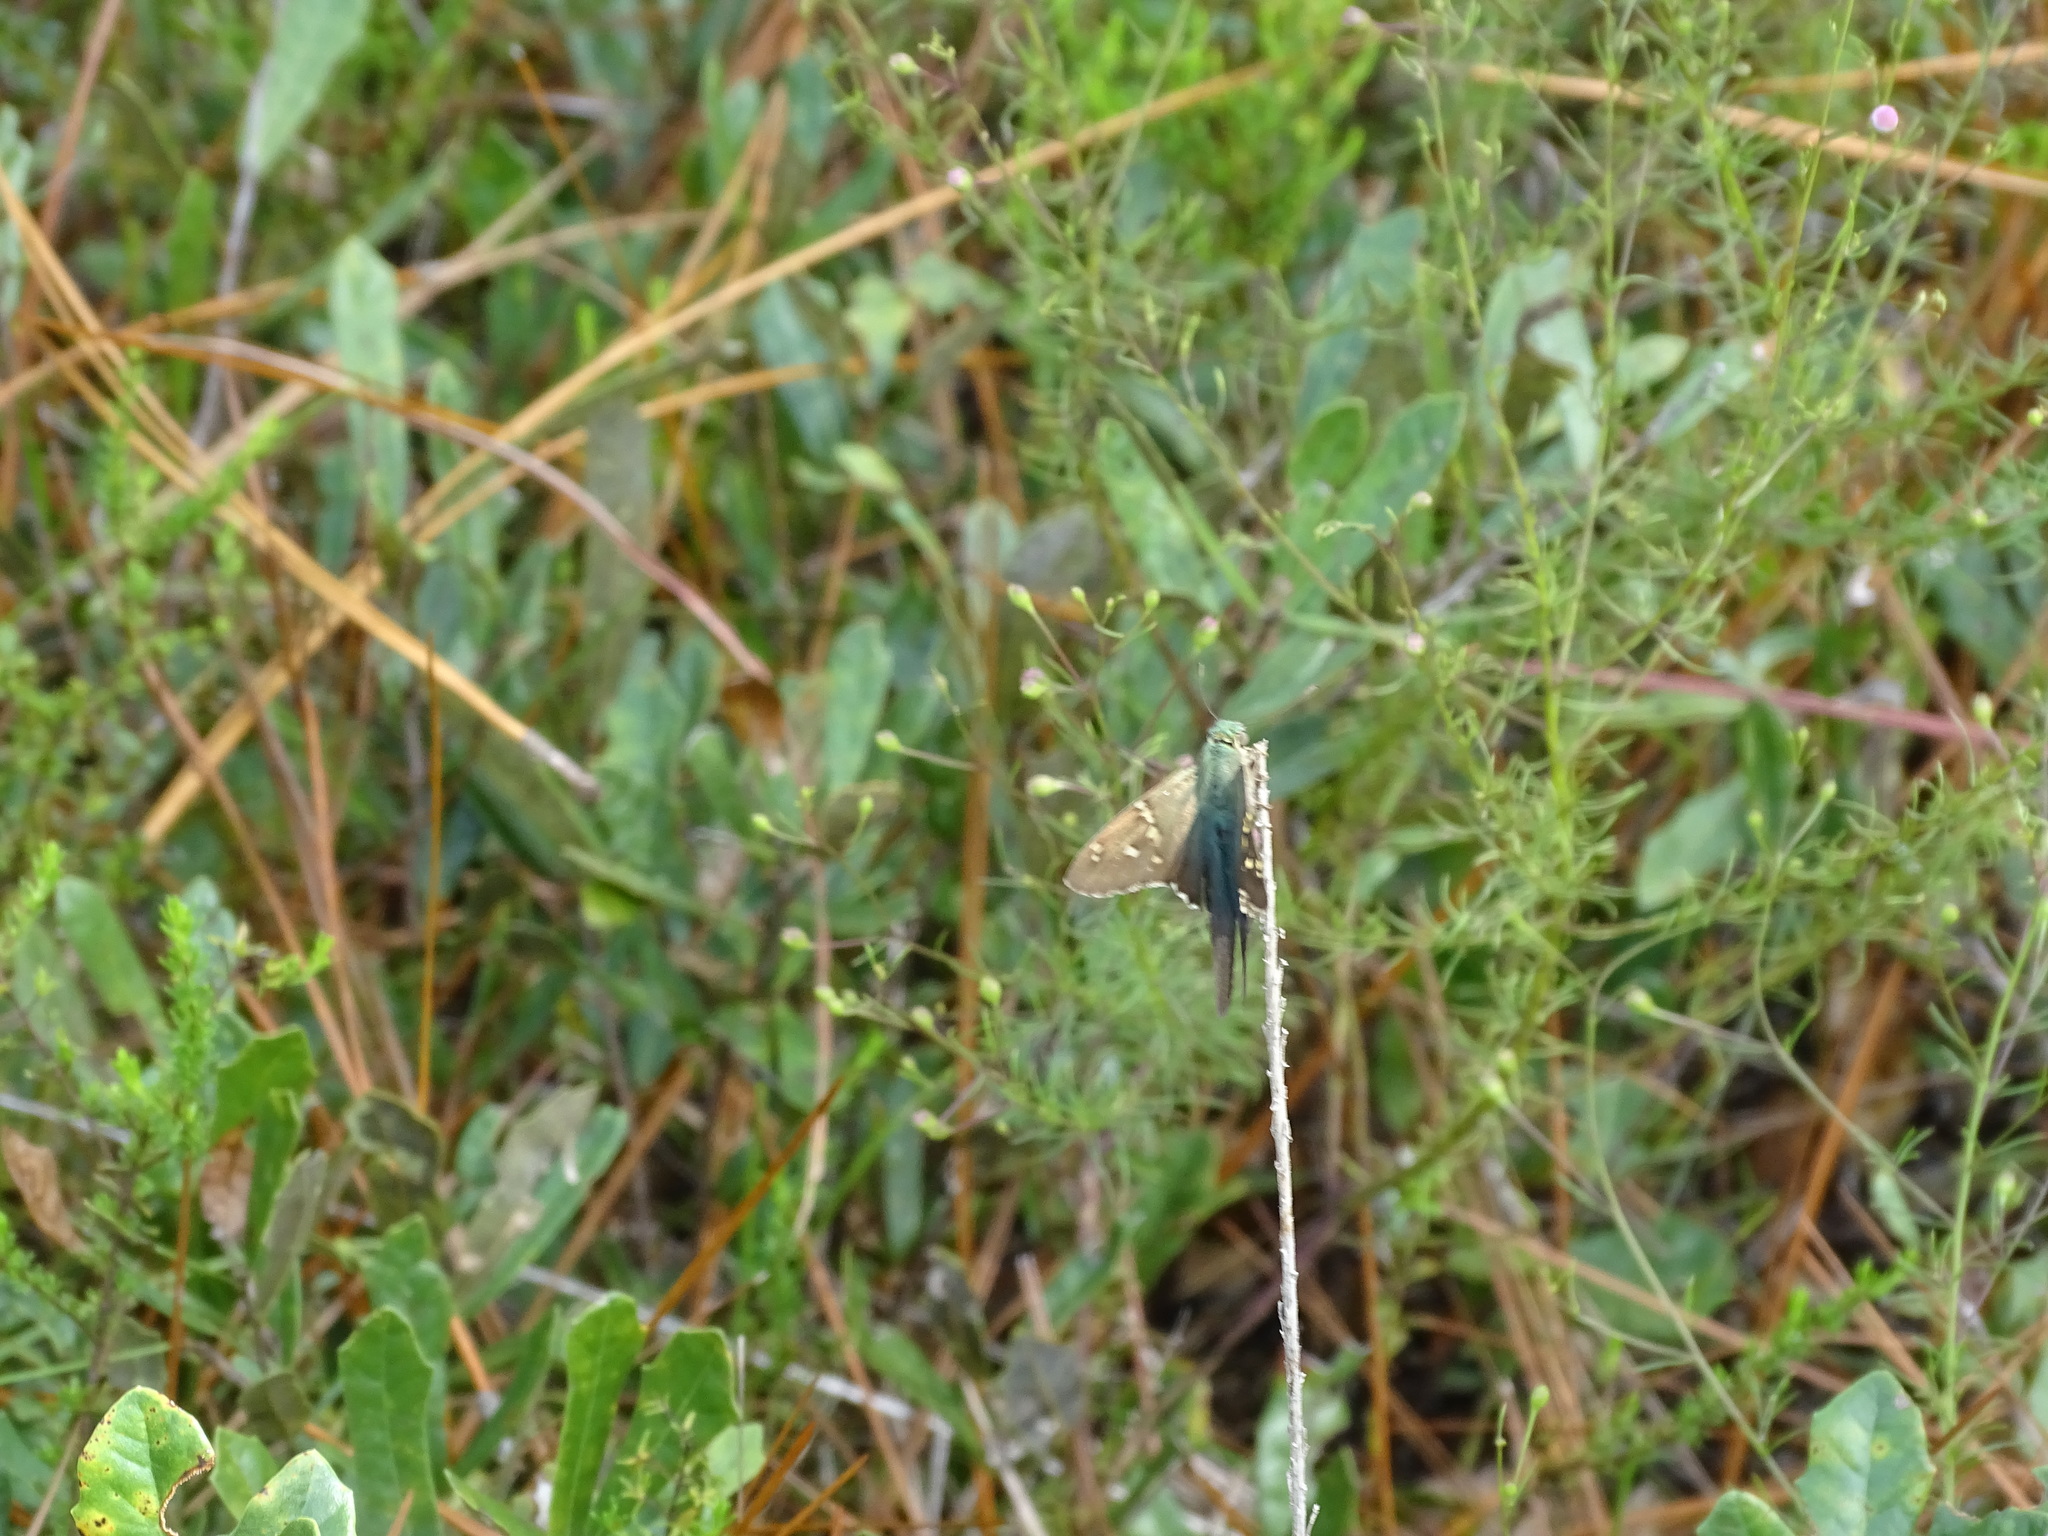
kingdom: Animalia
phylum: Arthropoda
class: Insecta
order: Lepidoptera
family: Hesperiidae
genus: Urbanus
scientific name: Urbanus proteus
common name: Long-tailed skipper
